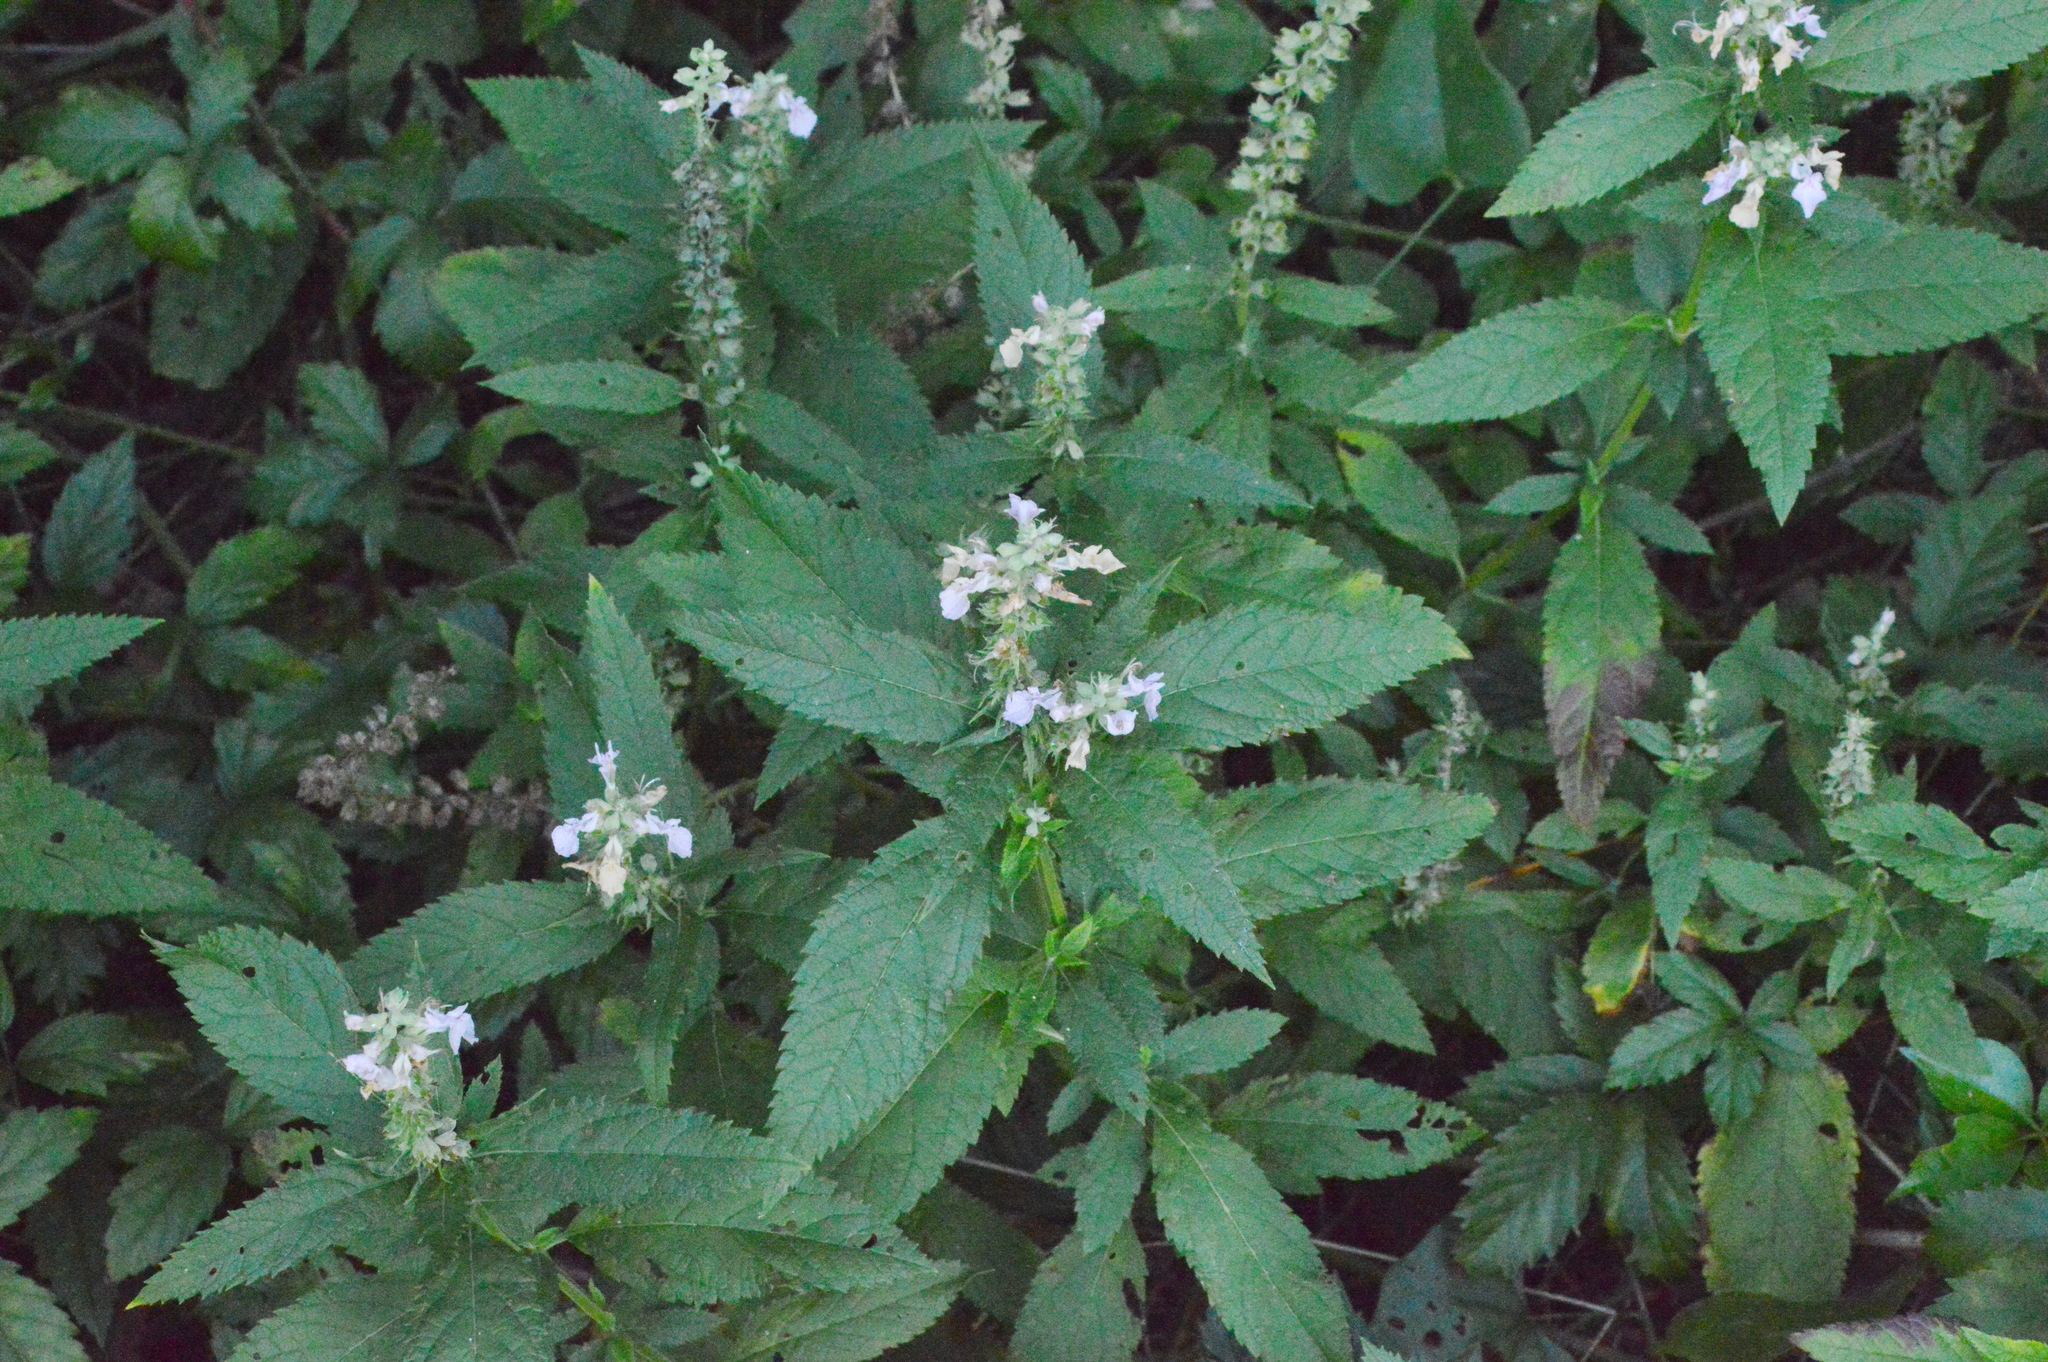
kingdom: Plantae
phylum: Tracheophyta
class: Magnoliopsida
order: Lamiales
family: Lamiaceae
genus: Teucrium
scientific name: Teucrium canadense
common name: American germander
